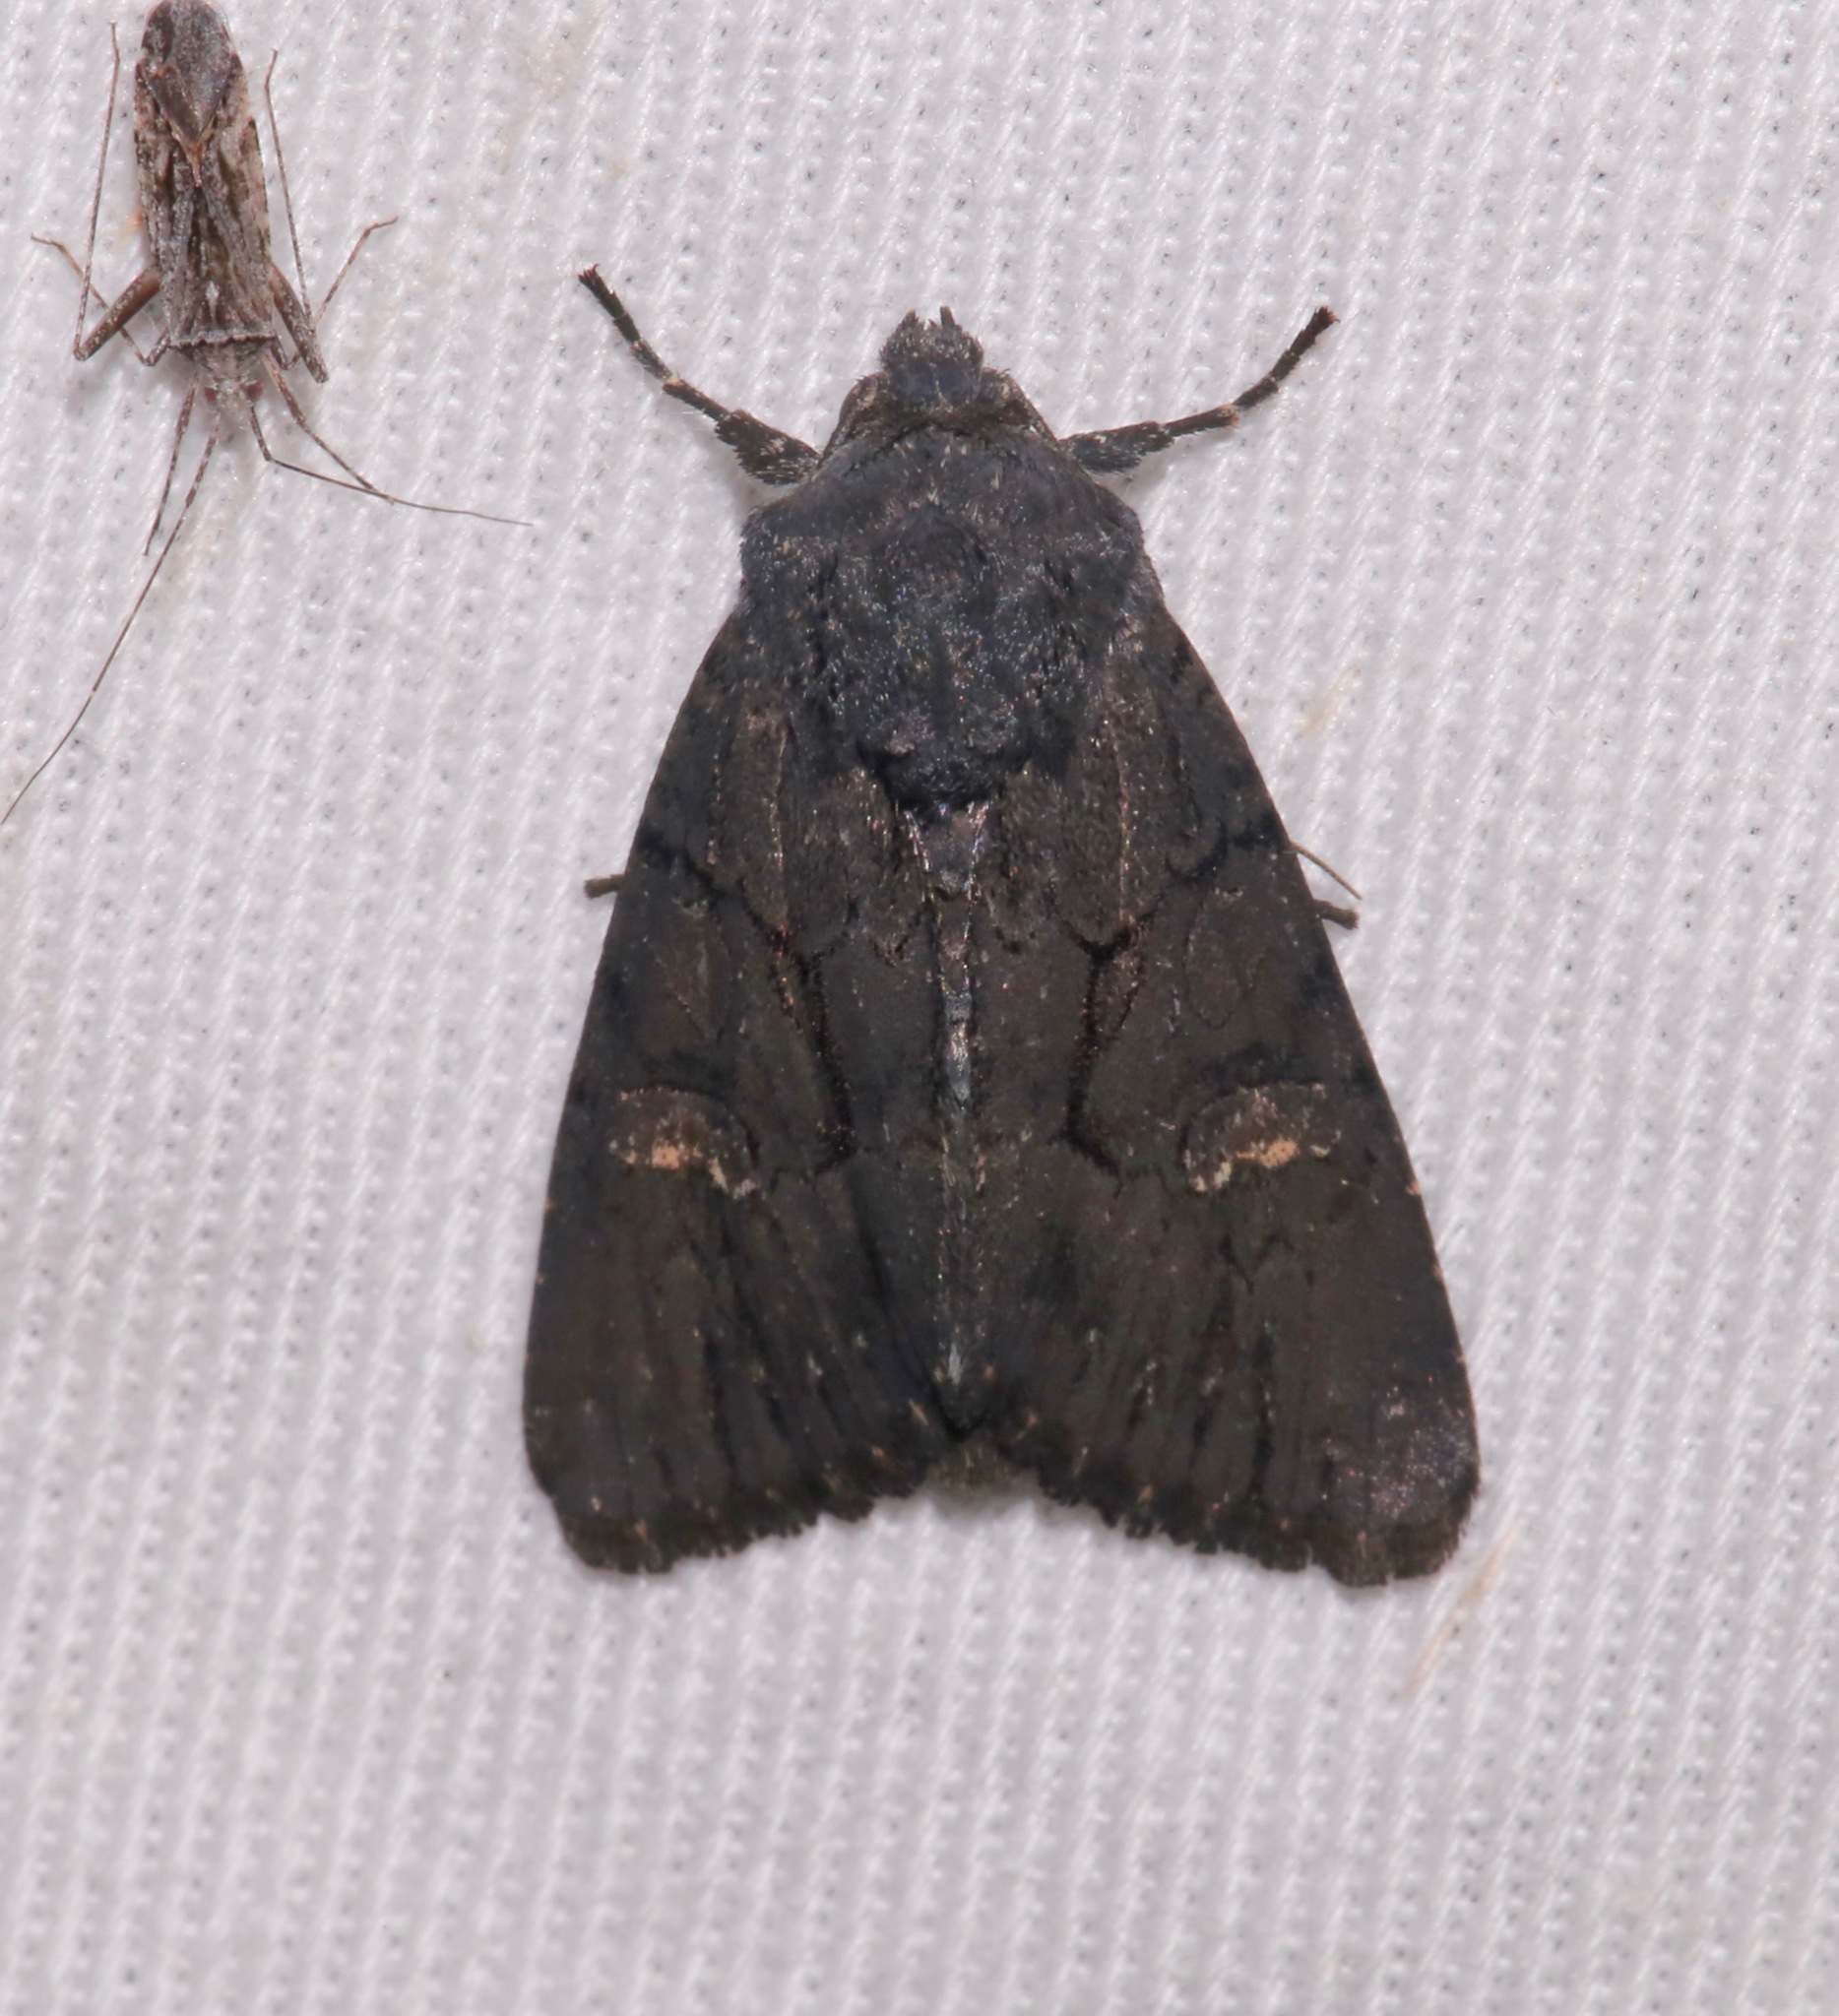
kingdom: Animalia
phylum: Arthropoda
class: Insecta
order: Lepidoptera
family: Noctuidae
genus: Apamea
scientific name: Apamea burgessi
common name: Burgess' apamea moth
